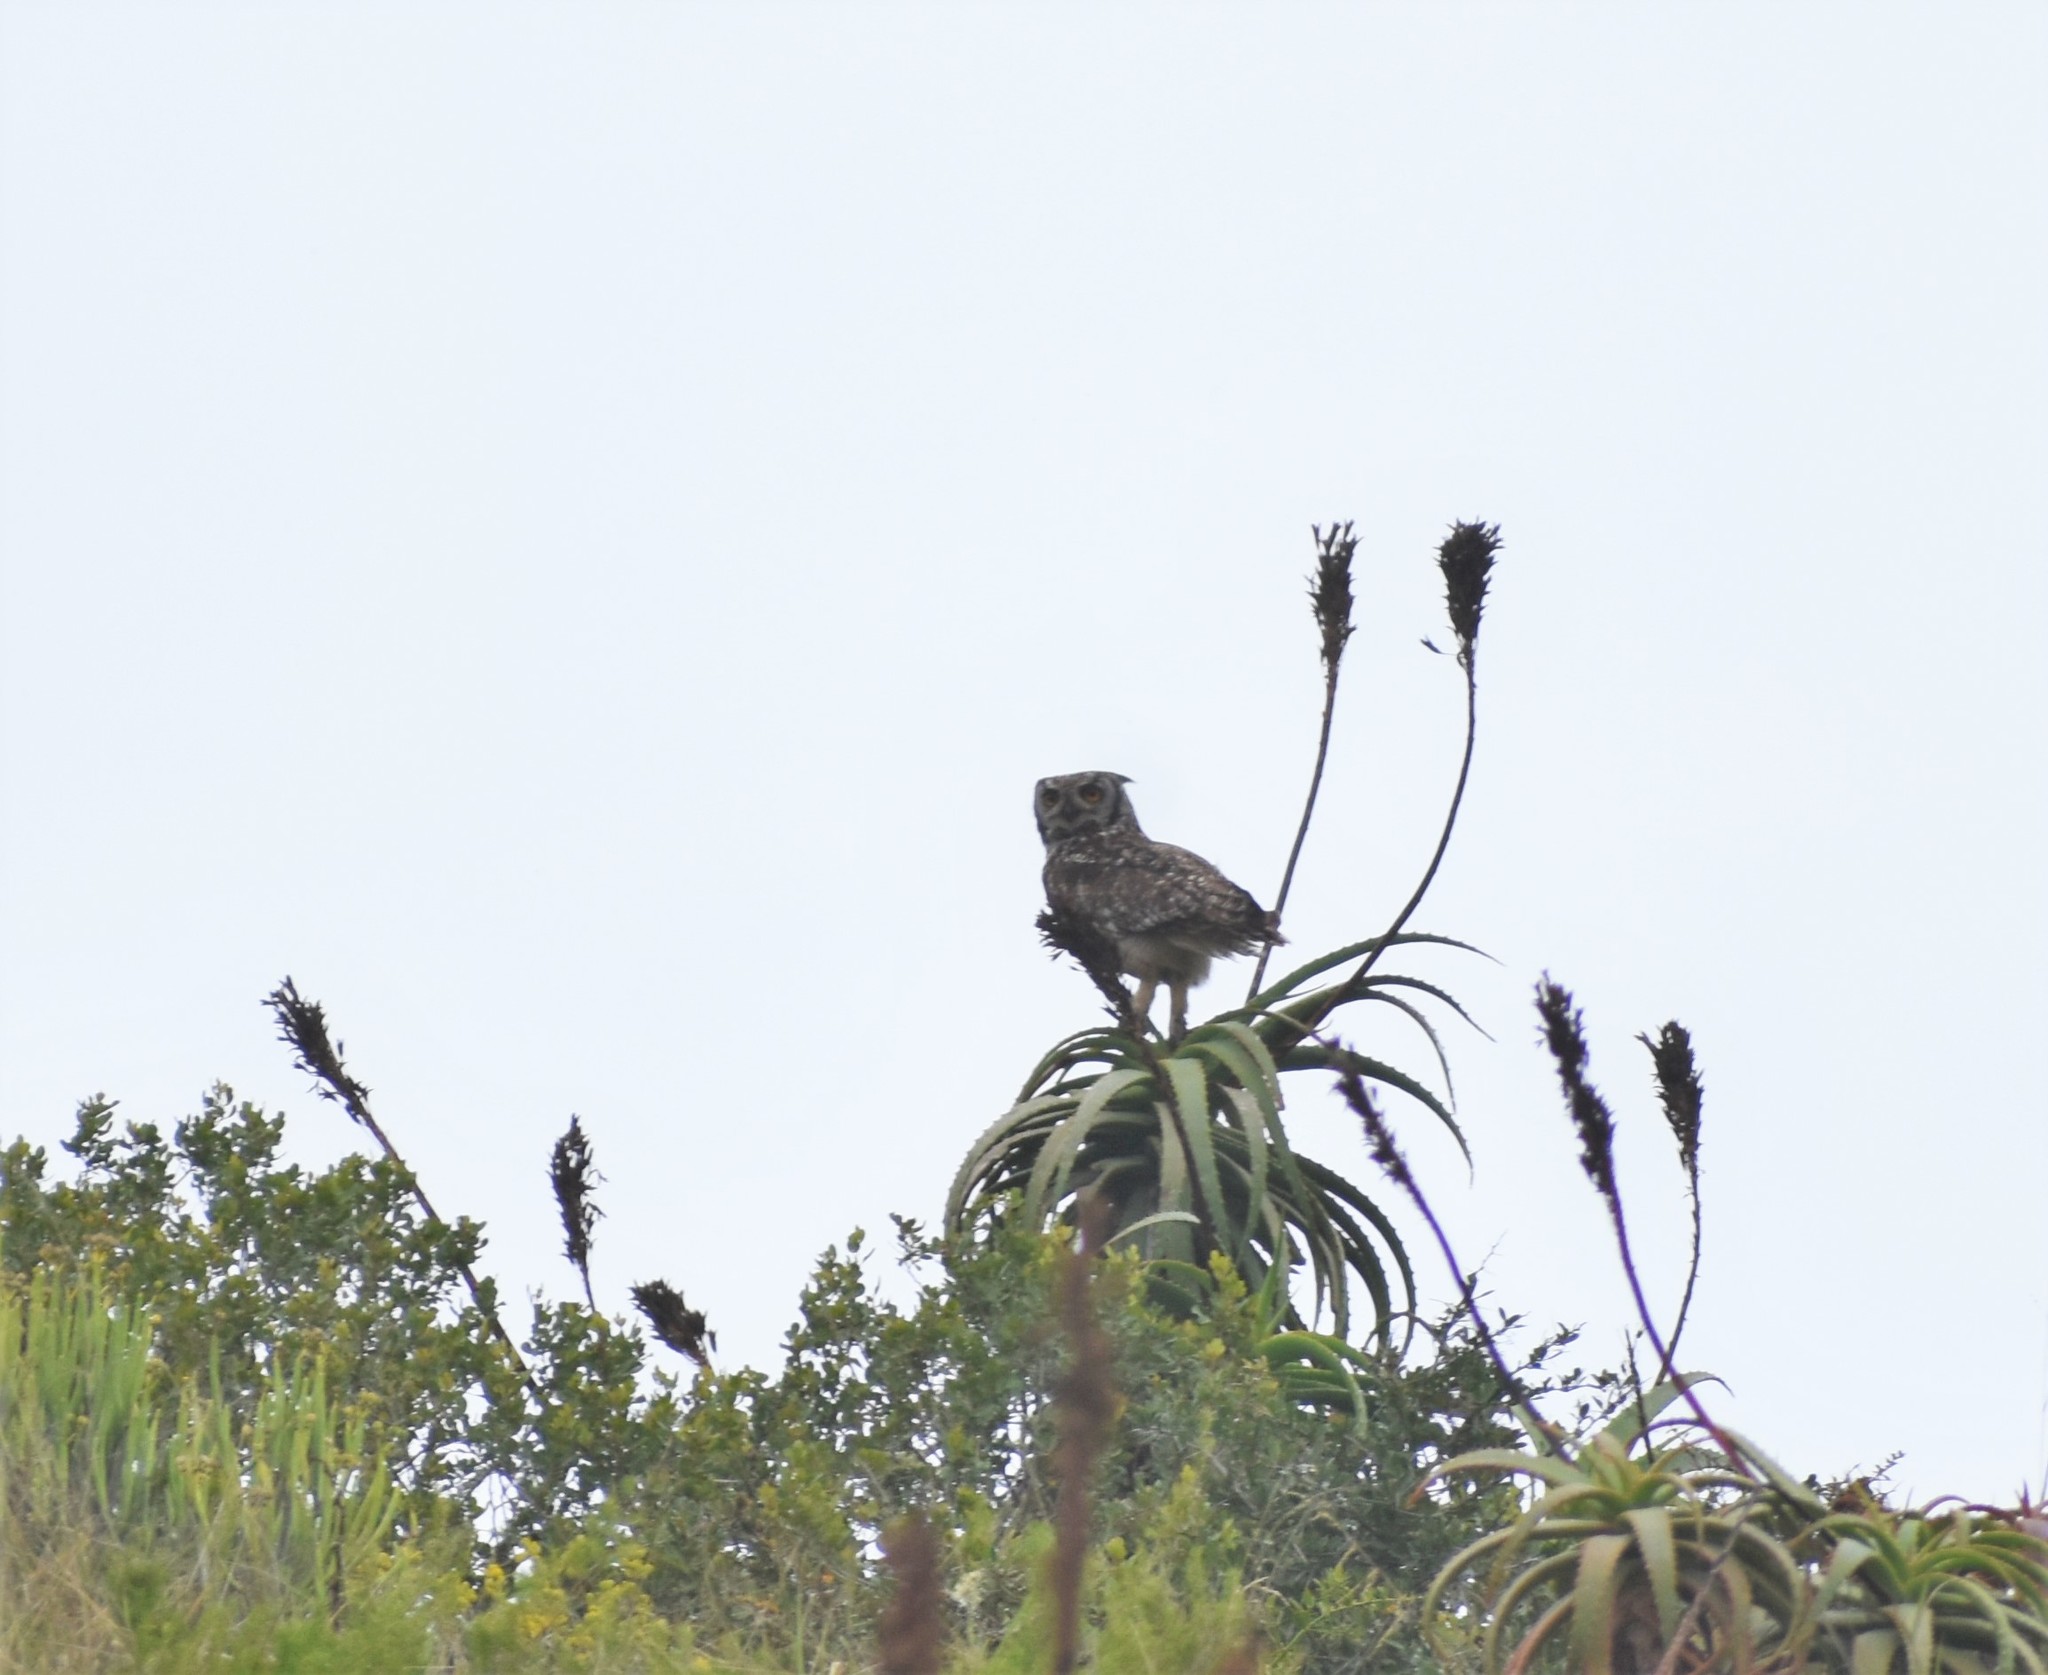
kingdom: Animalia
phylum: Chordata
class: Aves
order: Strigiformes
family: Strigidae
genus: Bubo
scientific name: Bubo africanus
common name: Spotted eagle-owl
